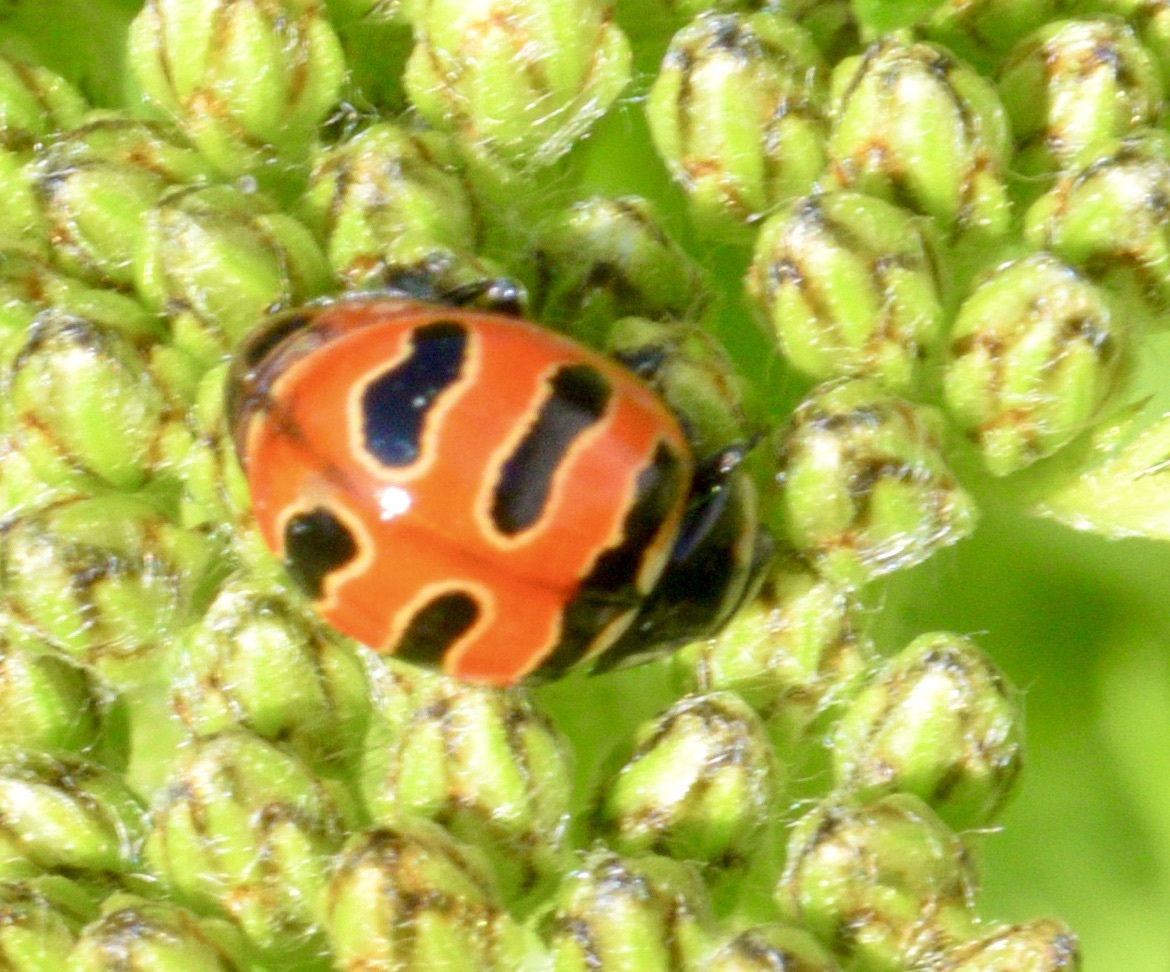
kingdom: Animalia
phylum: Arthropoda
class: Insecta
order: Coleoptera
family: Coccinellidae
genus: Coccinella
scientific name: Coccinella trifasciata
